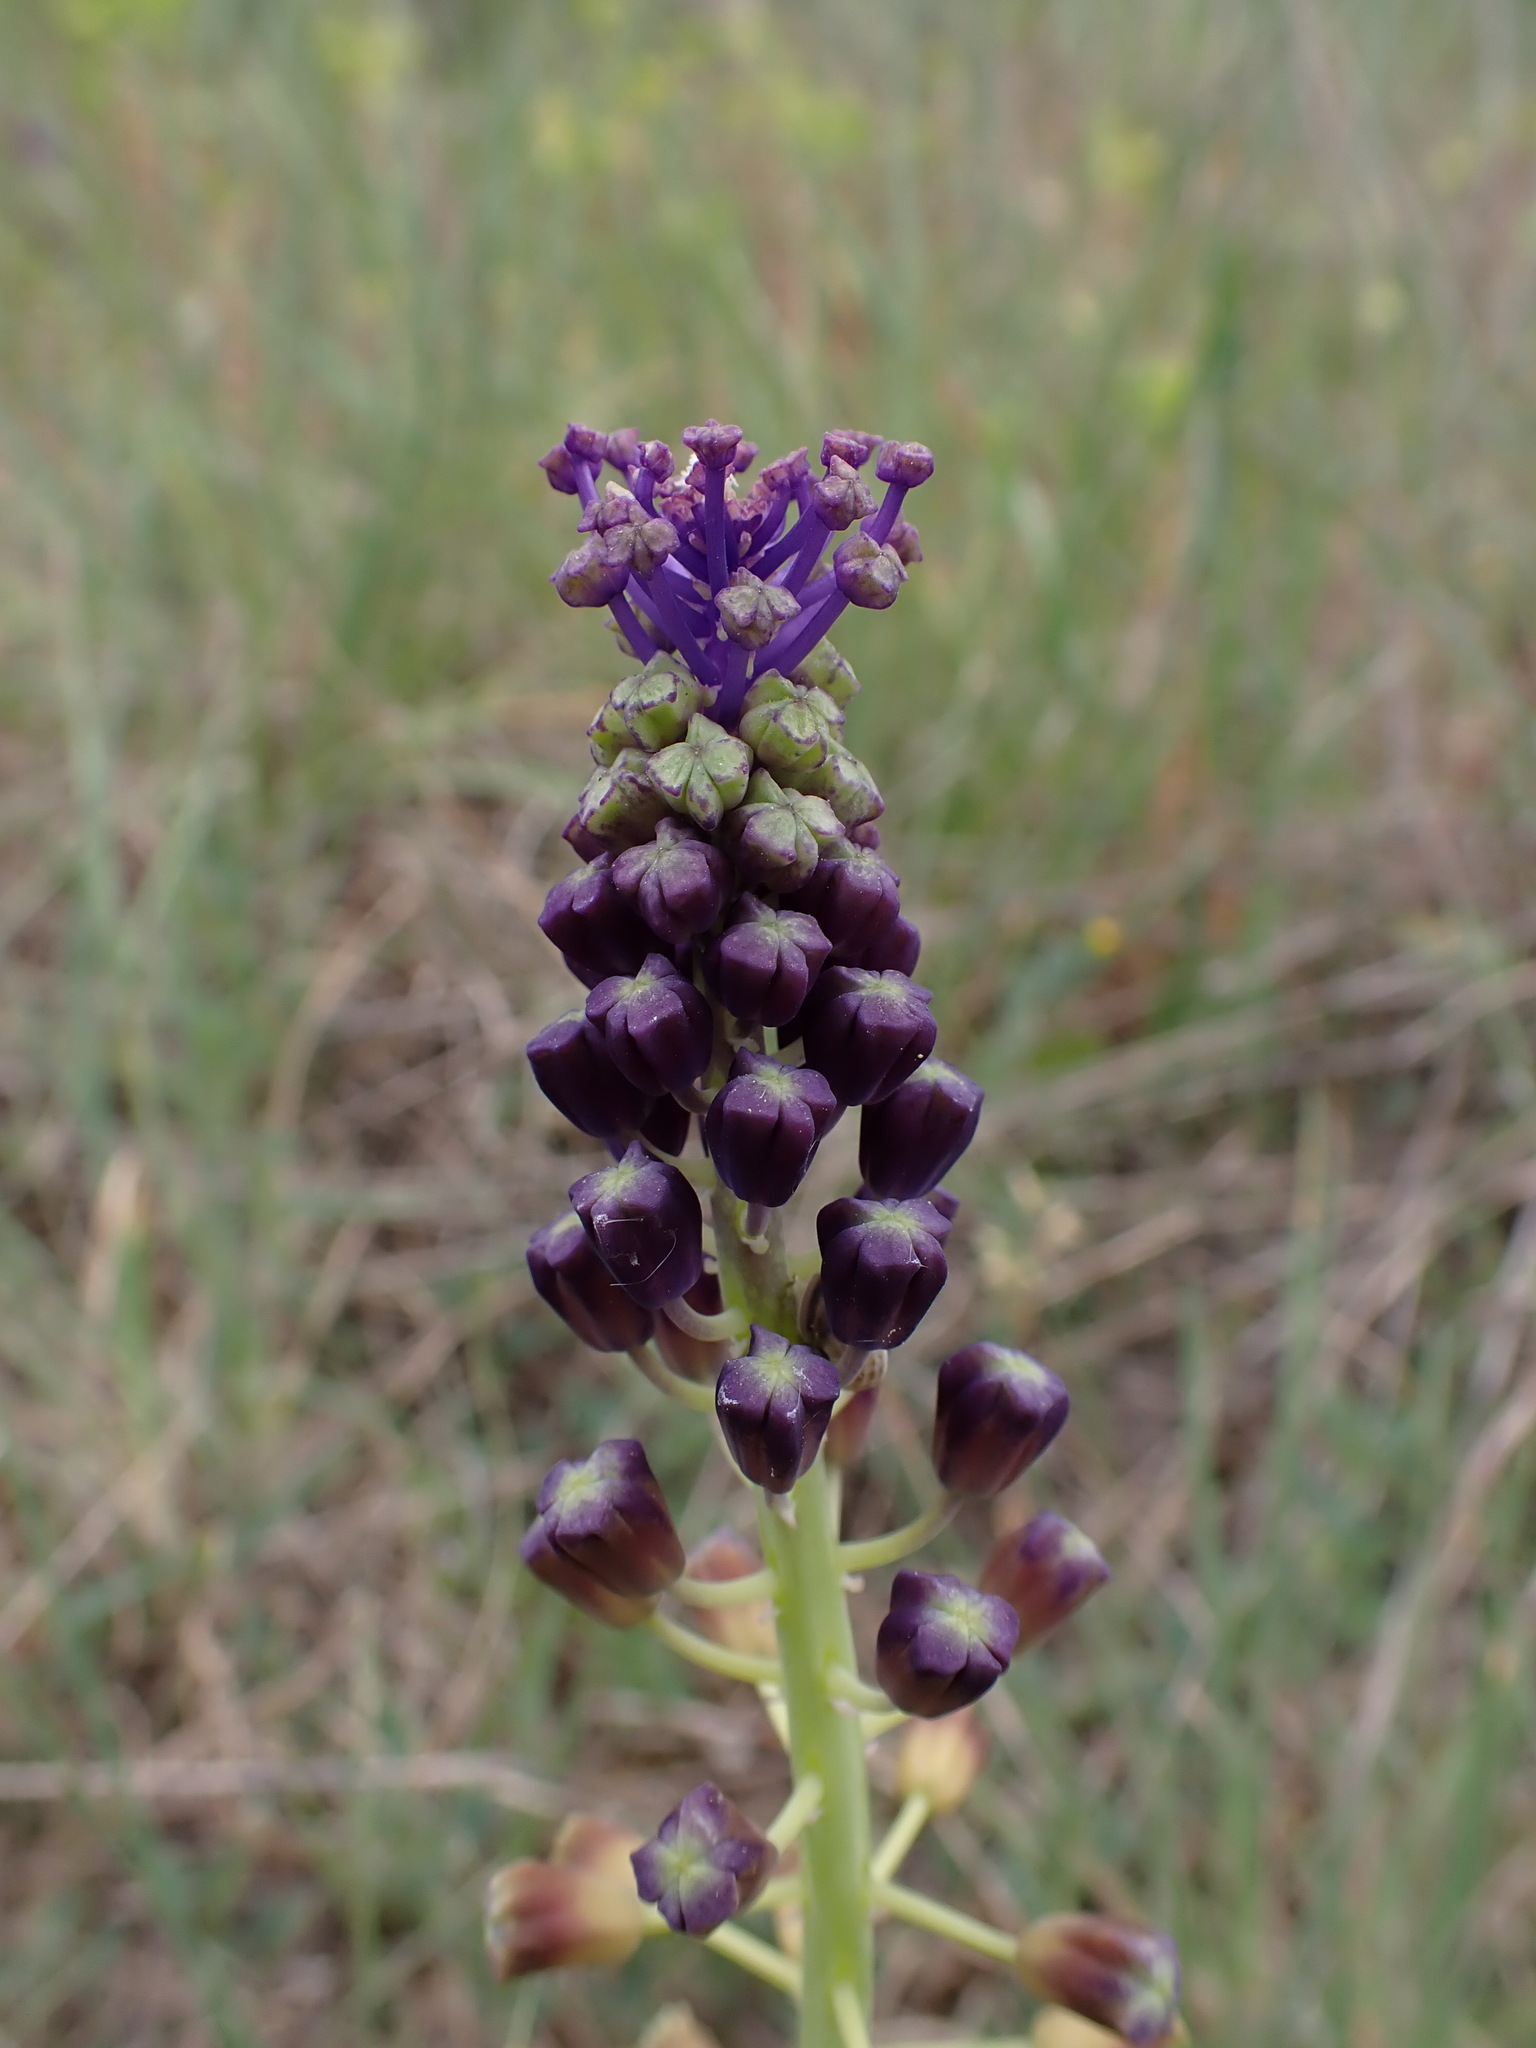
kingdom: Plantae
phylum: Tracheophyta
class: Liliopsida
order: Asparagales
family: Asparagaceae
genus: Muscari
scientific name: Muscari comosum
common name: Tassel hyacinth
